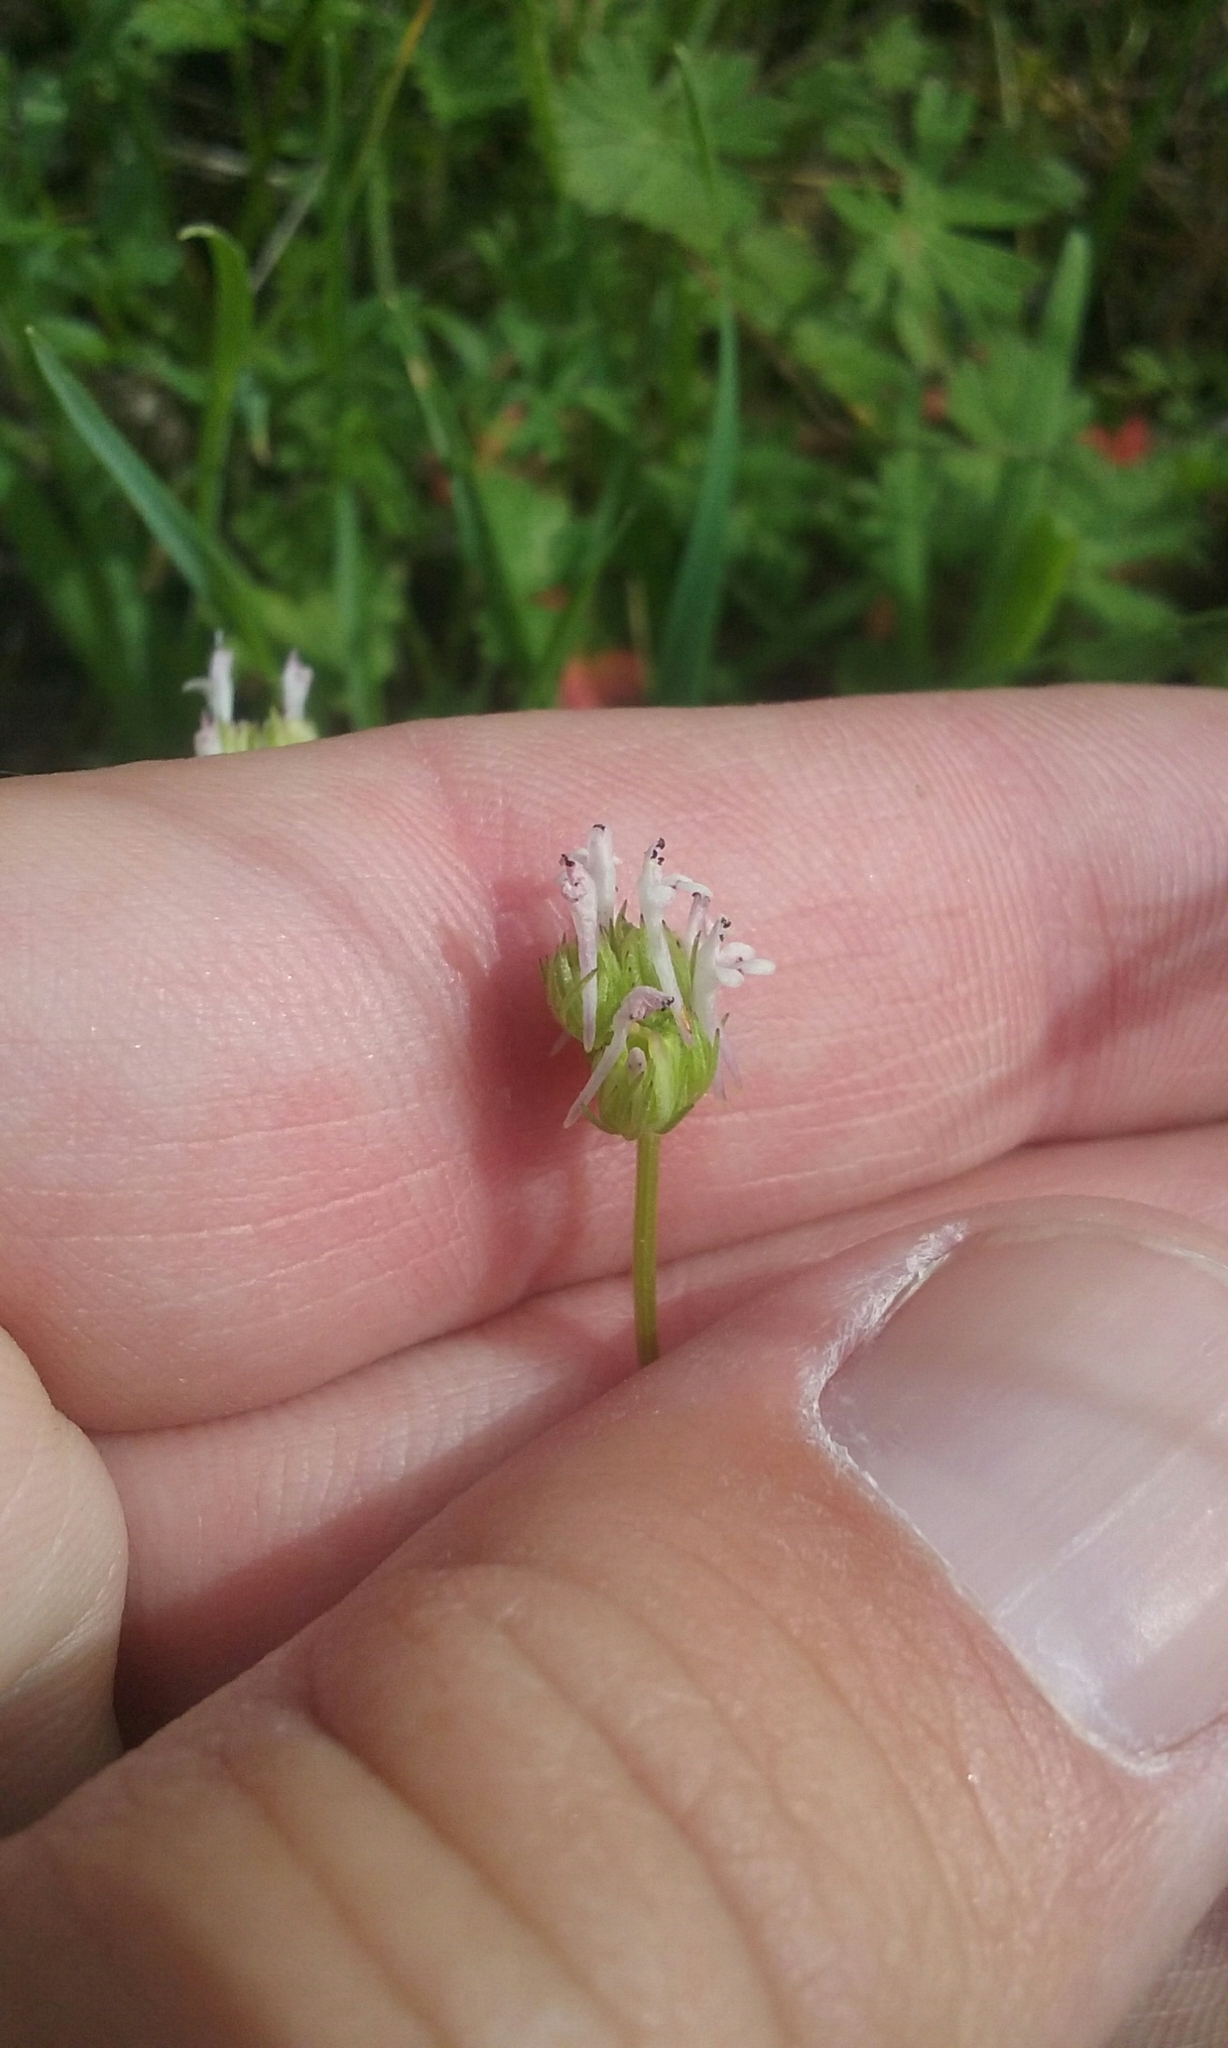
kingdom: Plantae
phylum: Tracheophyta
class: Magnoliopsida
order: Dipsacales
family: Caprifoliaceae
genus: Plectritis
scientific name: Plectritis ciliosa
